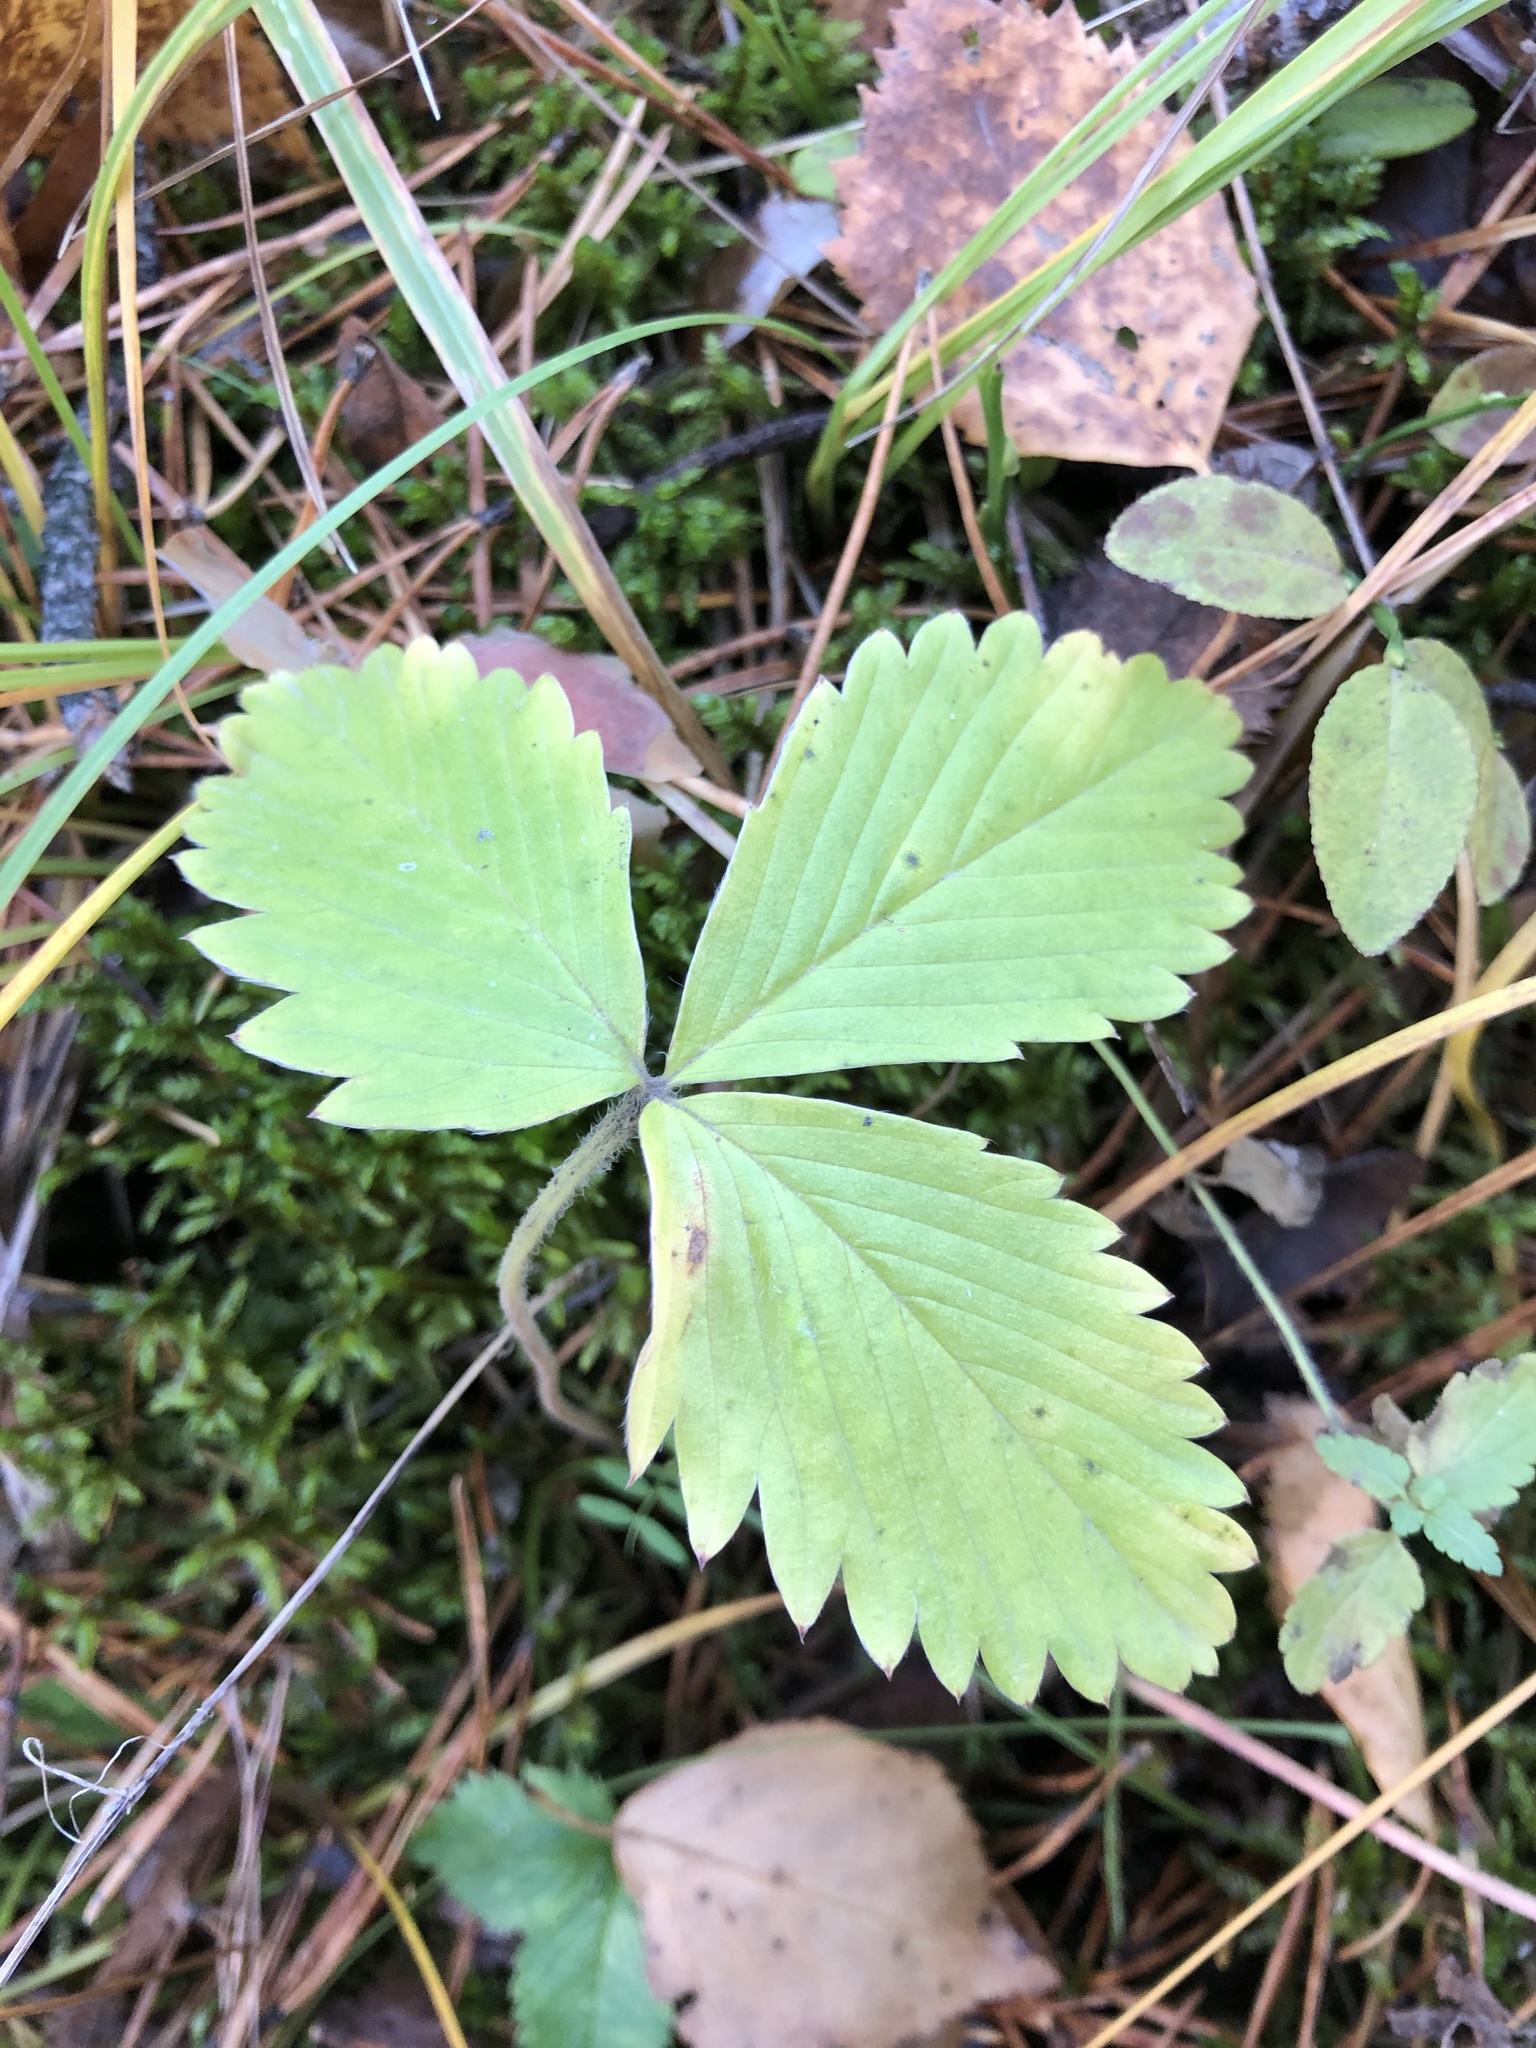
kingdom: Plantae
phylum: Tracheophyta
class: Magnoliopsida
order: Rosales
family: Rosaceae
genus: Fragaria
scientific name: Fragaria vesca
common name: Wild strawberry
